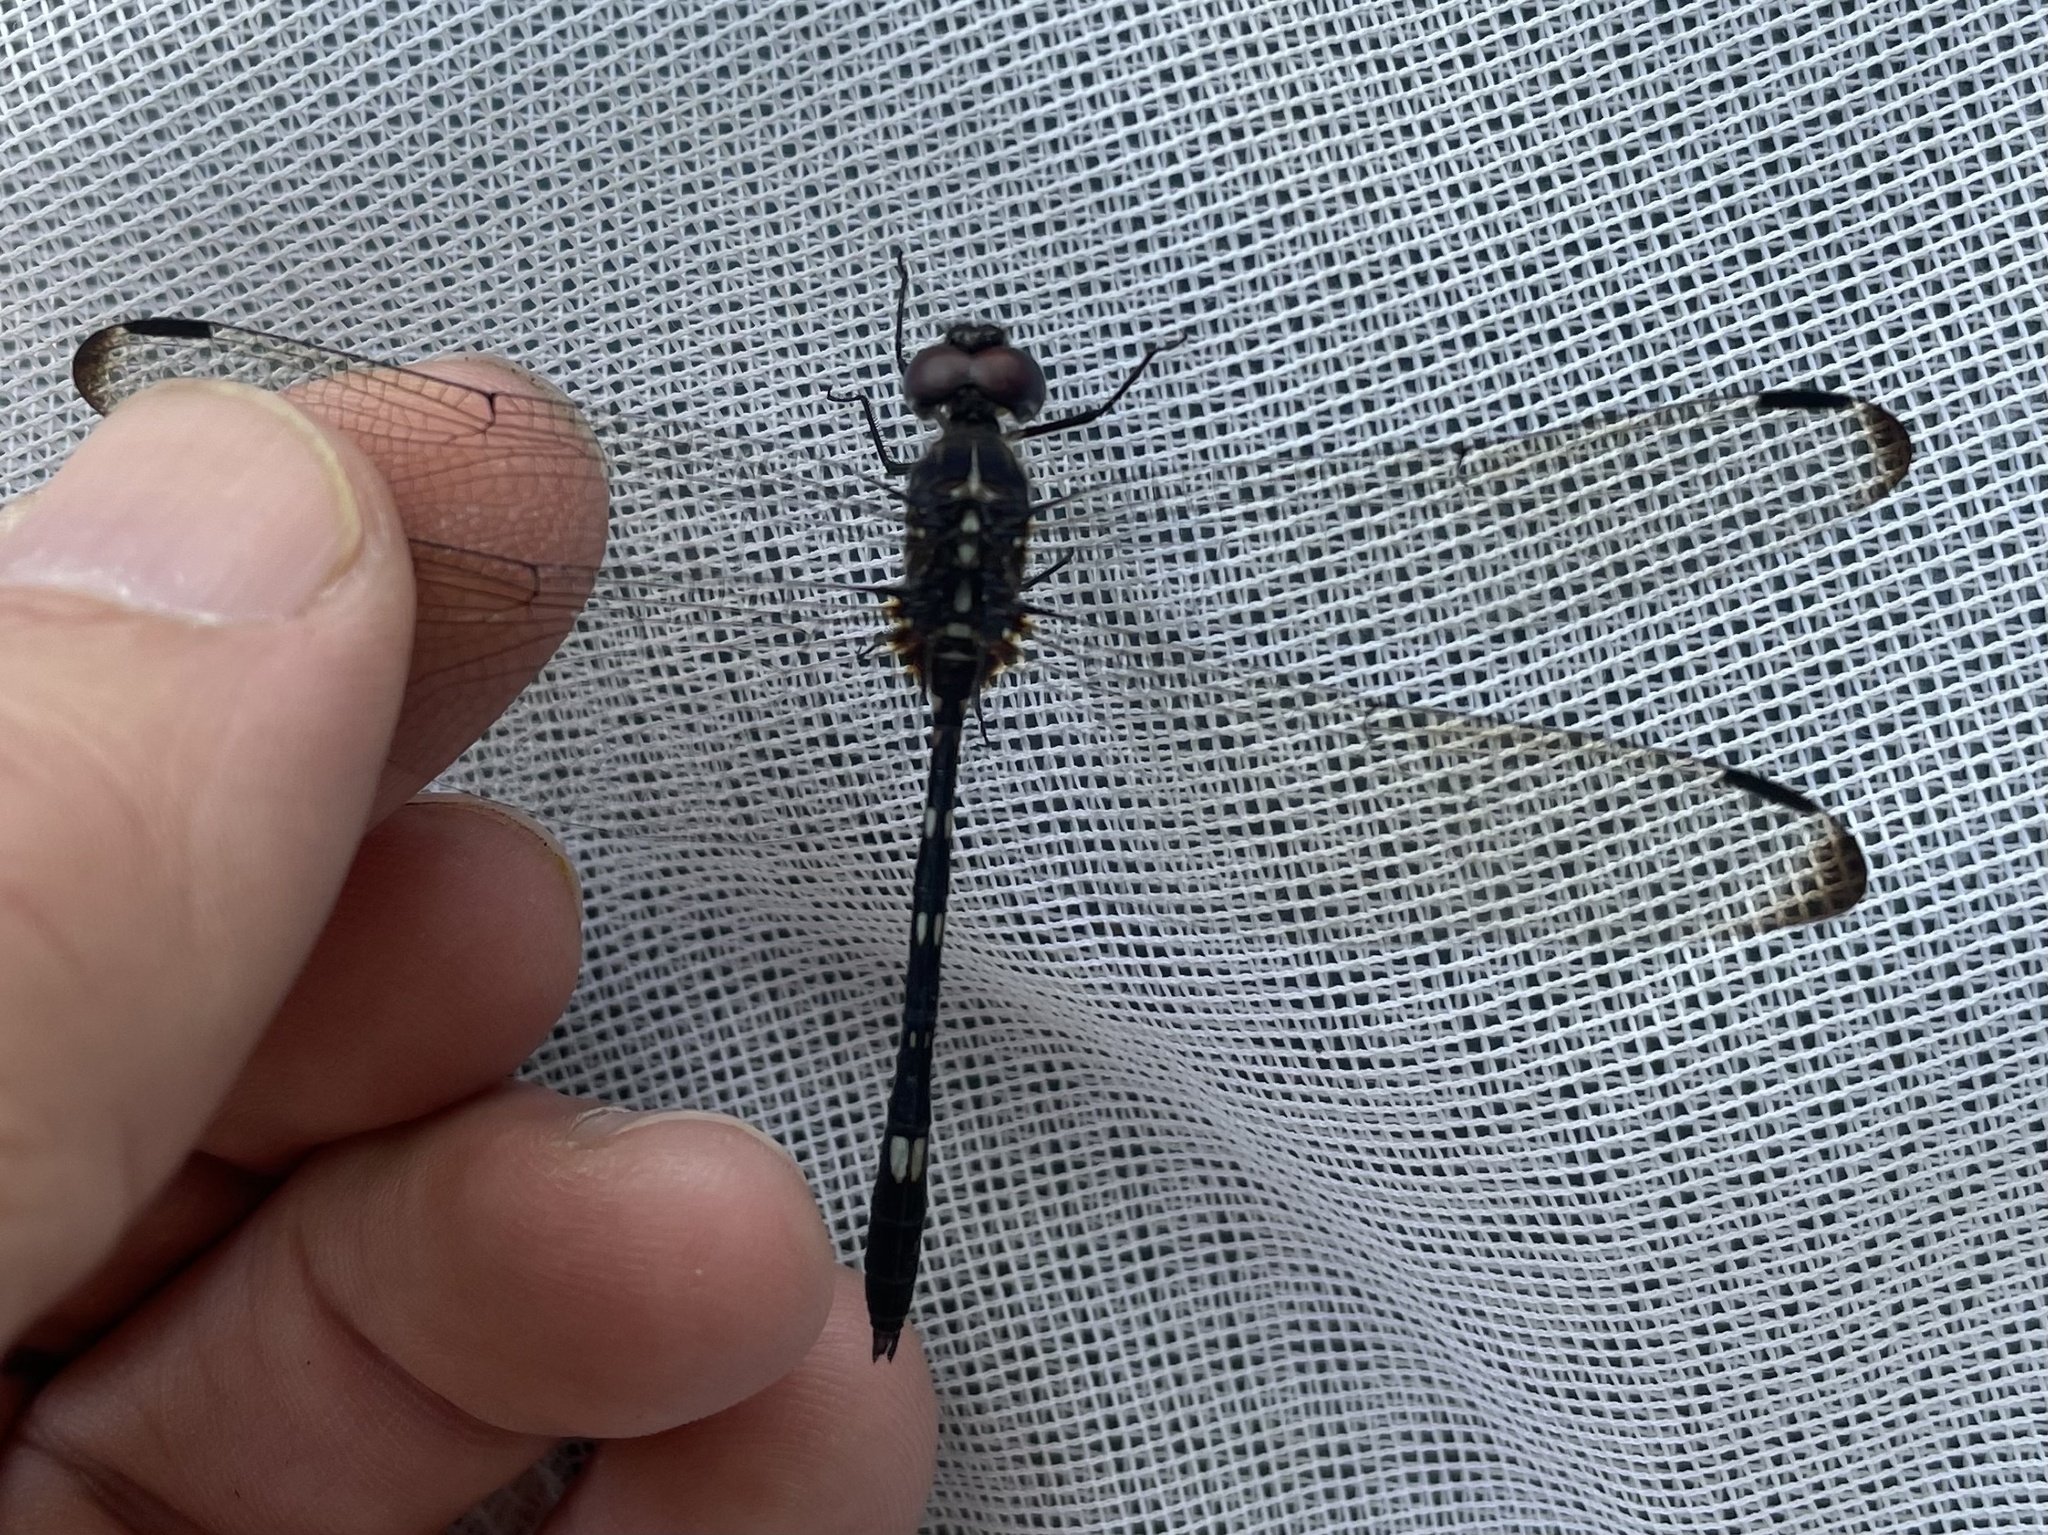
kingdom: Animalia
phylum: Arthropoda
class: Insecta
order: Odonata
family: Libellulidae
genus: Dythemis
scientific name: Dythemis velox
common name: Swift setwing
